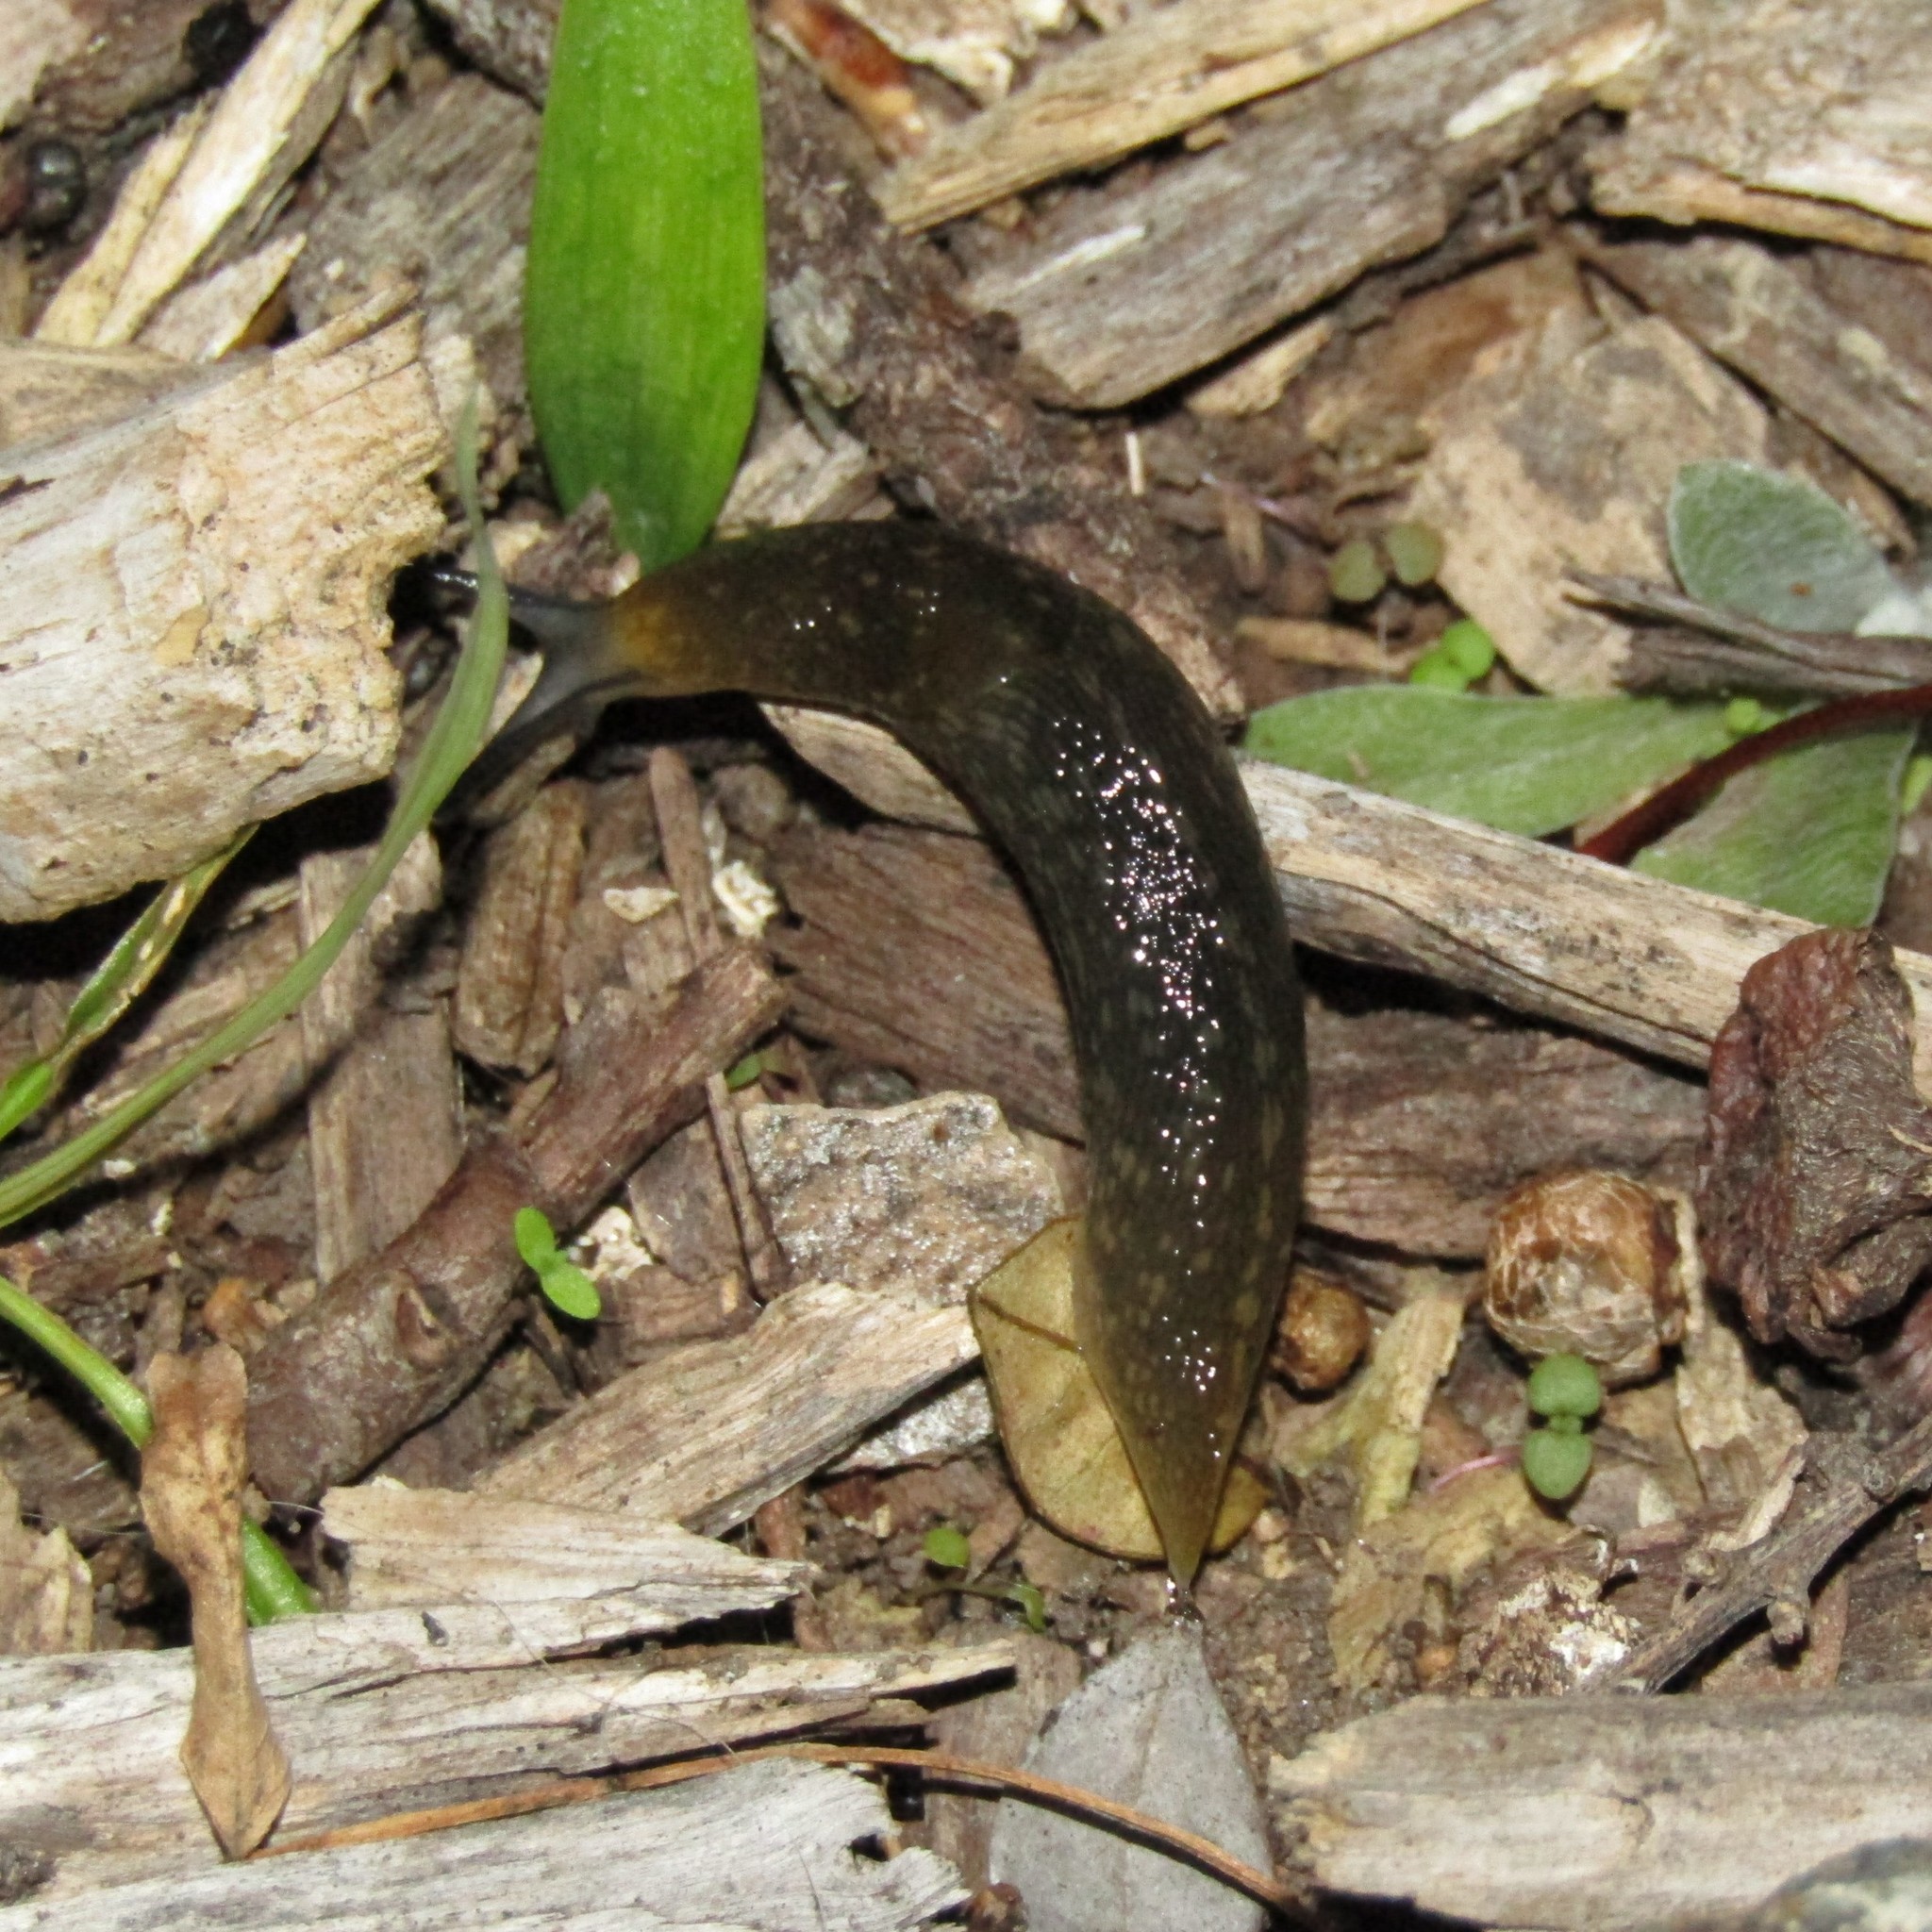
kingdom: Animalia
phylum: Mollusca
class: Gastropoda
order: Stylommatophora
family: Limacidae
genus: Limacus
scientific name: Limacus flavus
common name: Yellow gardenslug
